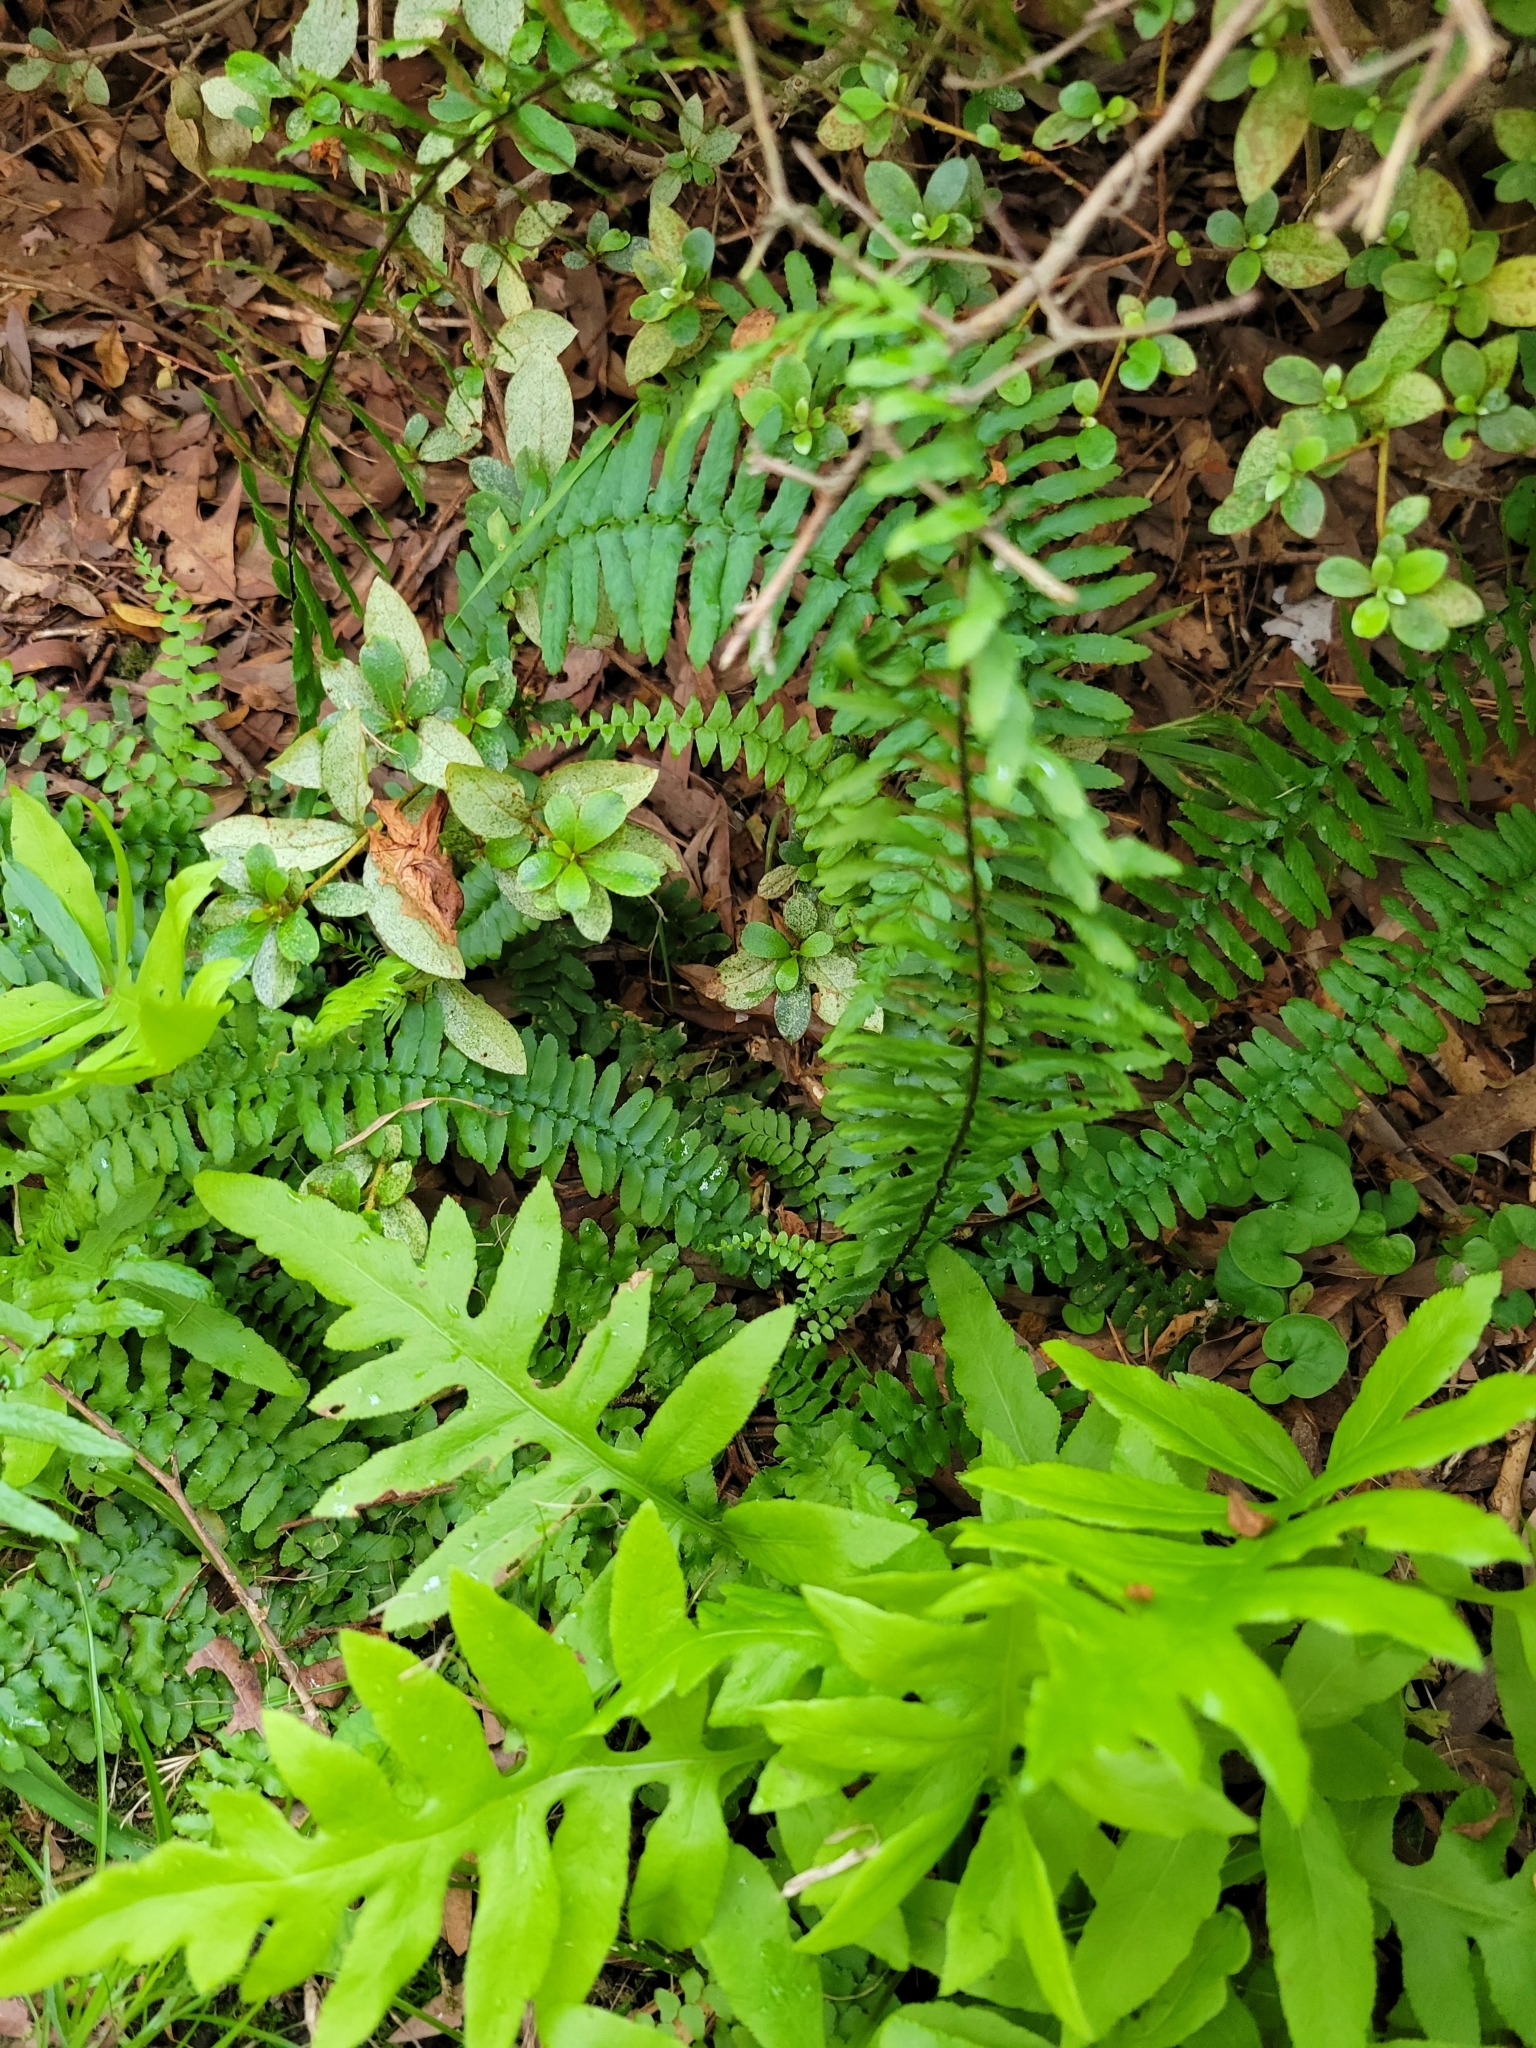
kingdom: Plantae
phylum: Tracheophyta
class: Polypodiopsida
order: Polypodiales
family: Aspleniaceae
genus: Asplenium
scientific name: Asplenium platyneuron
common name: Ebony spleenwort
